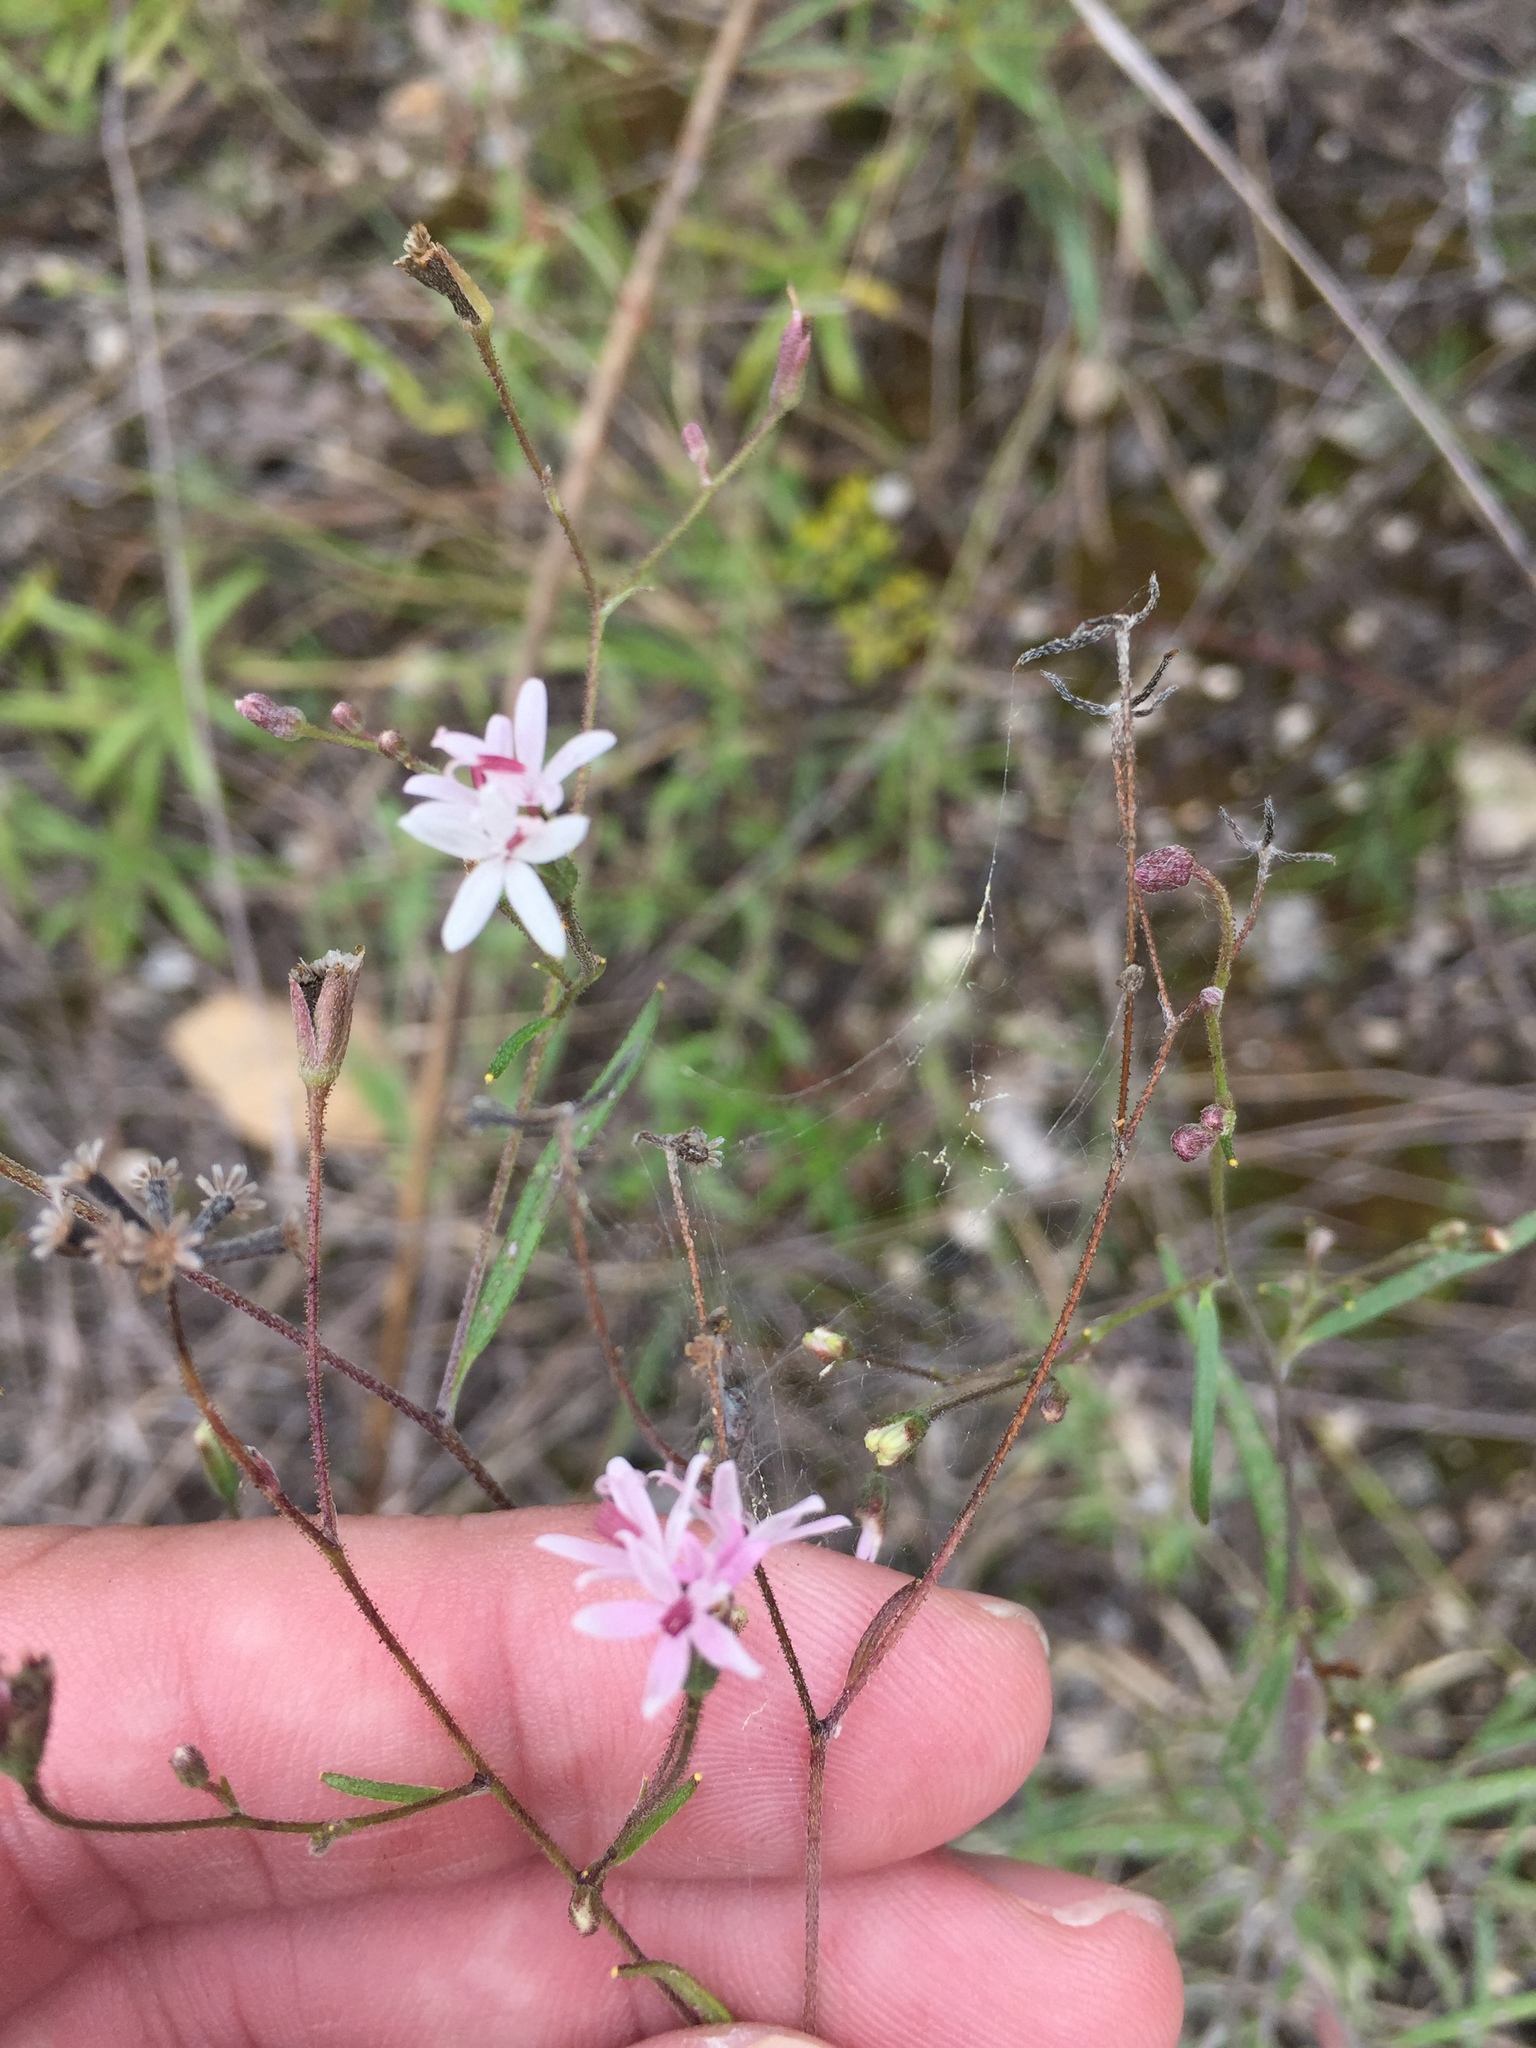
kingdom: Plantae
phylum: Tracheophyta
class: Magnoliopsida
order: Asterales
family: Asteraceae
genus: Palafoxia
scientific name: Palafoxia callosa
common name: Small palafox
